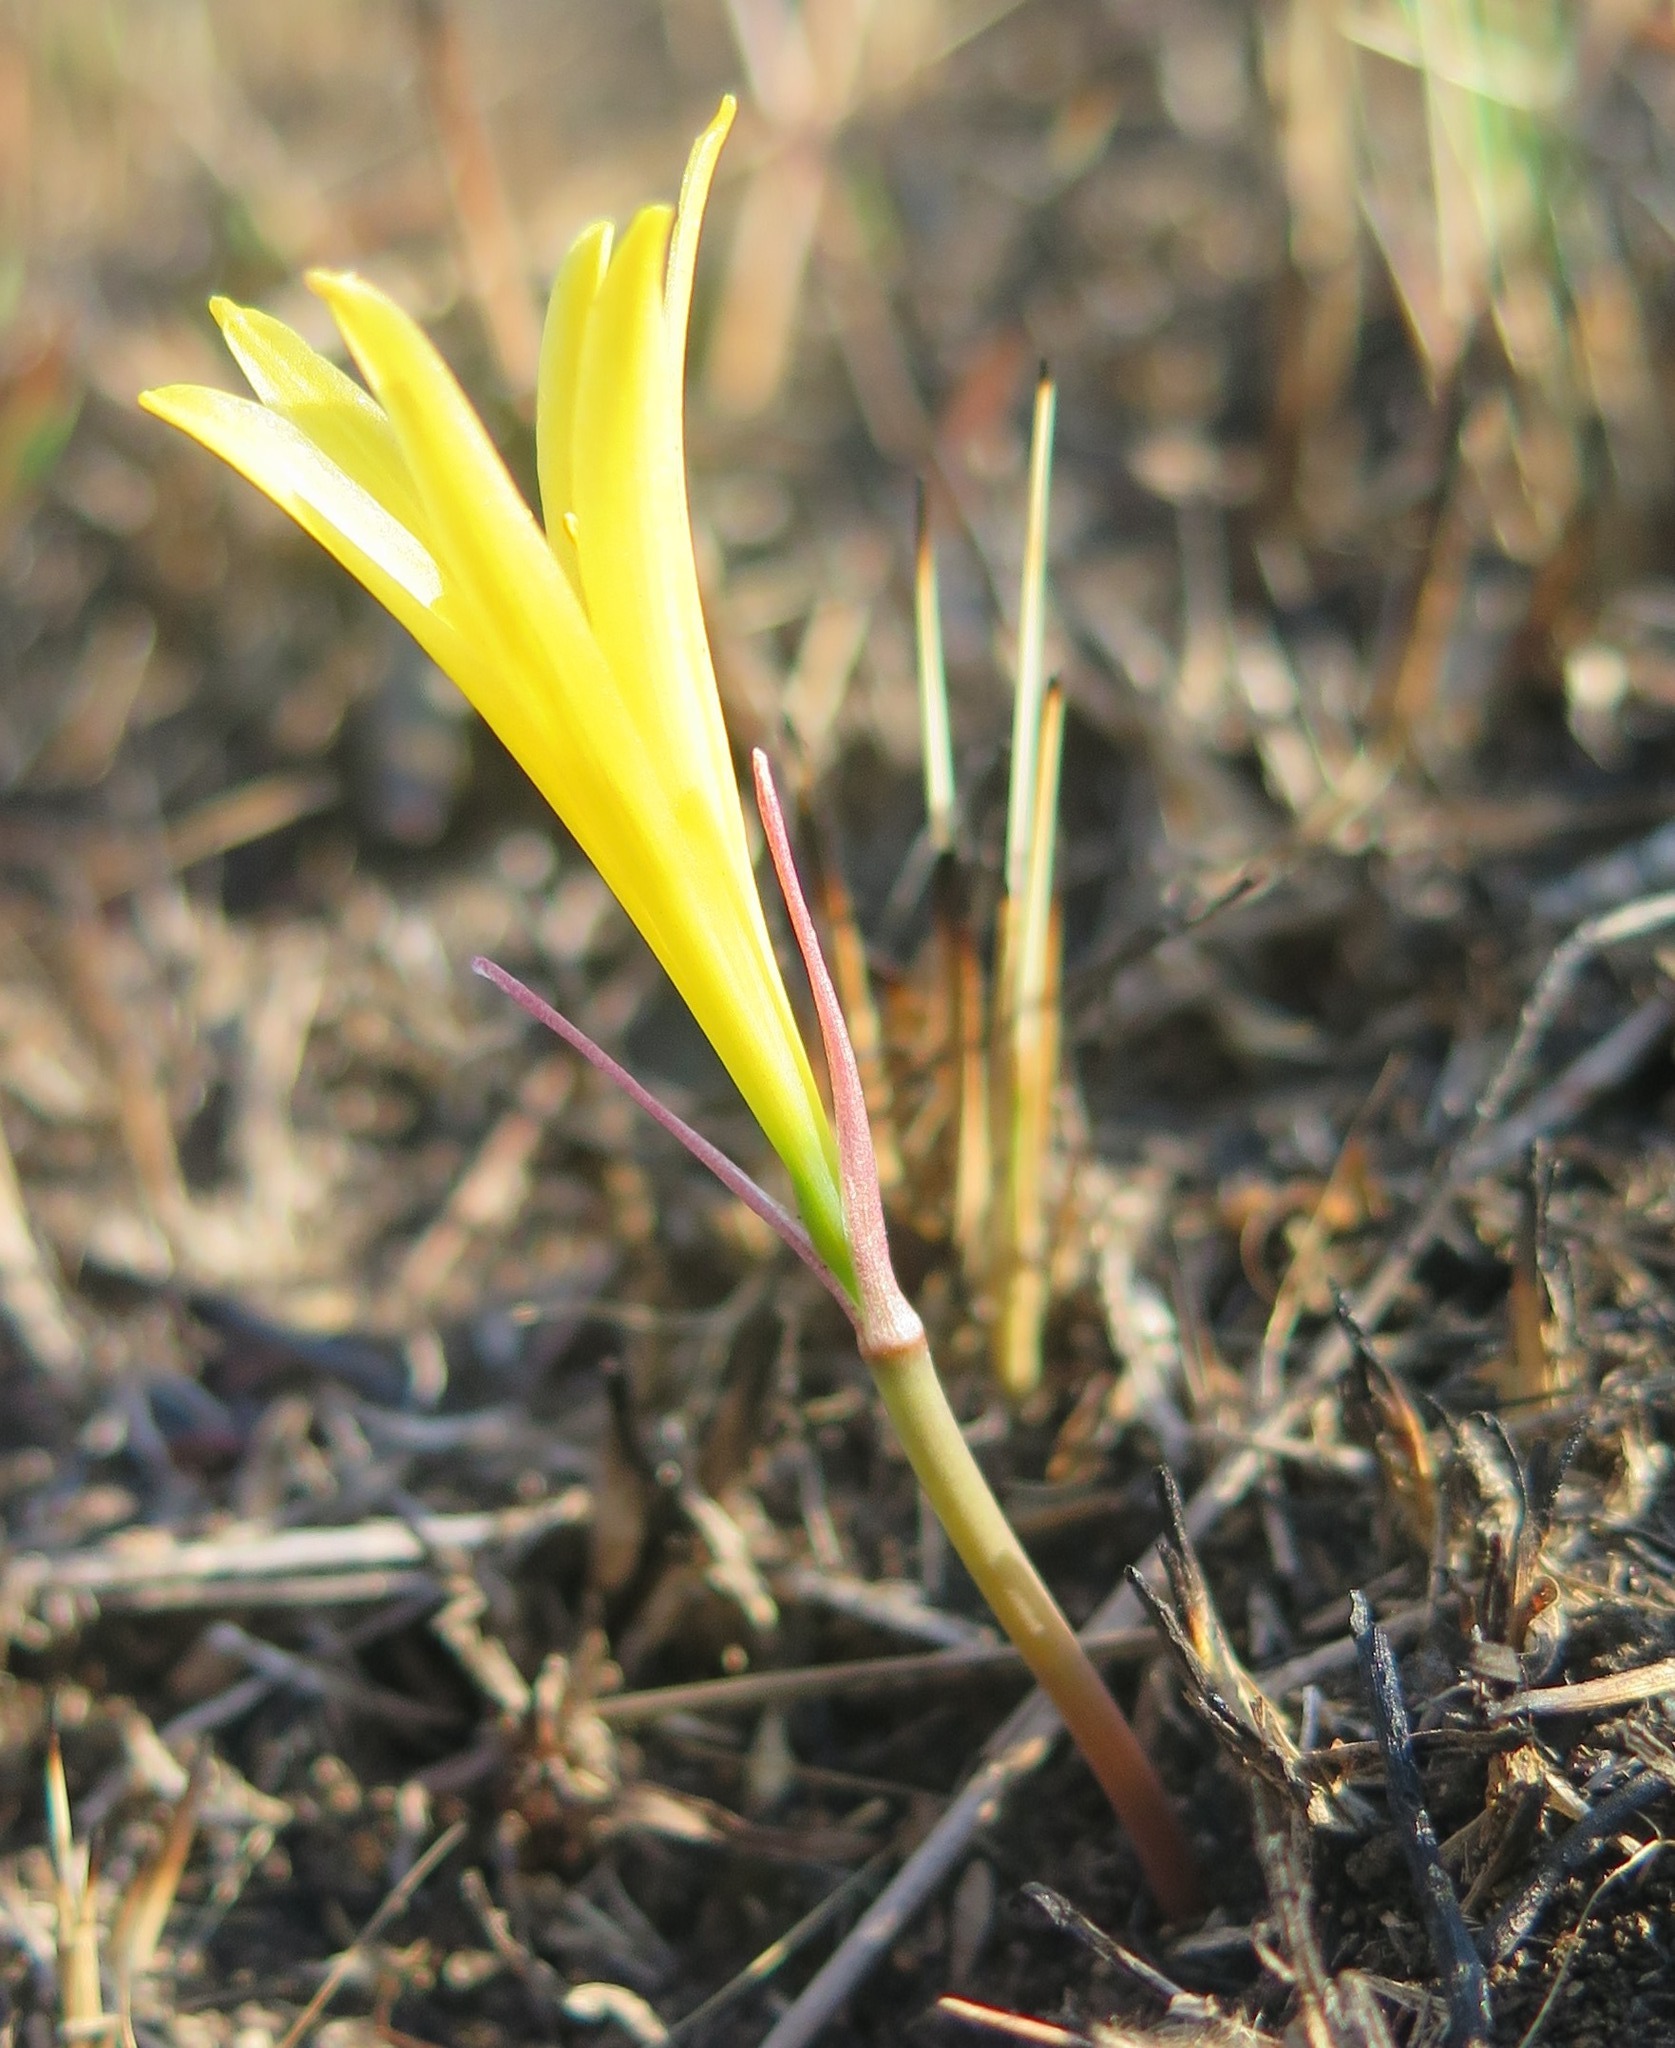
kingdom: Plantae
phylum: Tracheophyta
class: Liliopsida
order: Asparagales
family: Amaryllidaceae
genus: Cyrtanthus
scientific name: Cyrtanthus breviflorus
